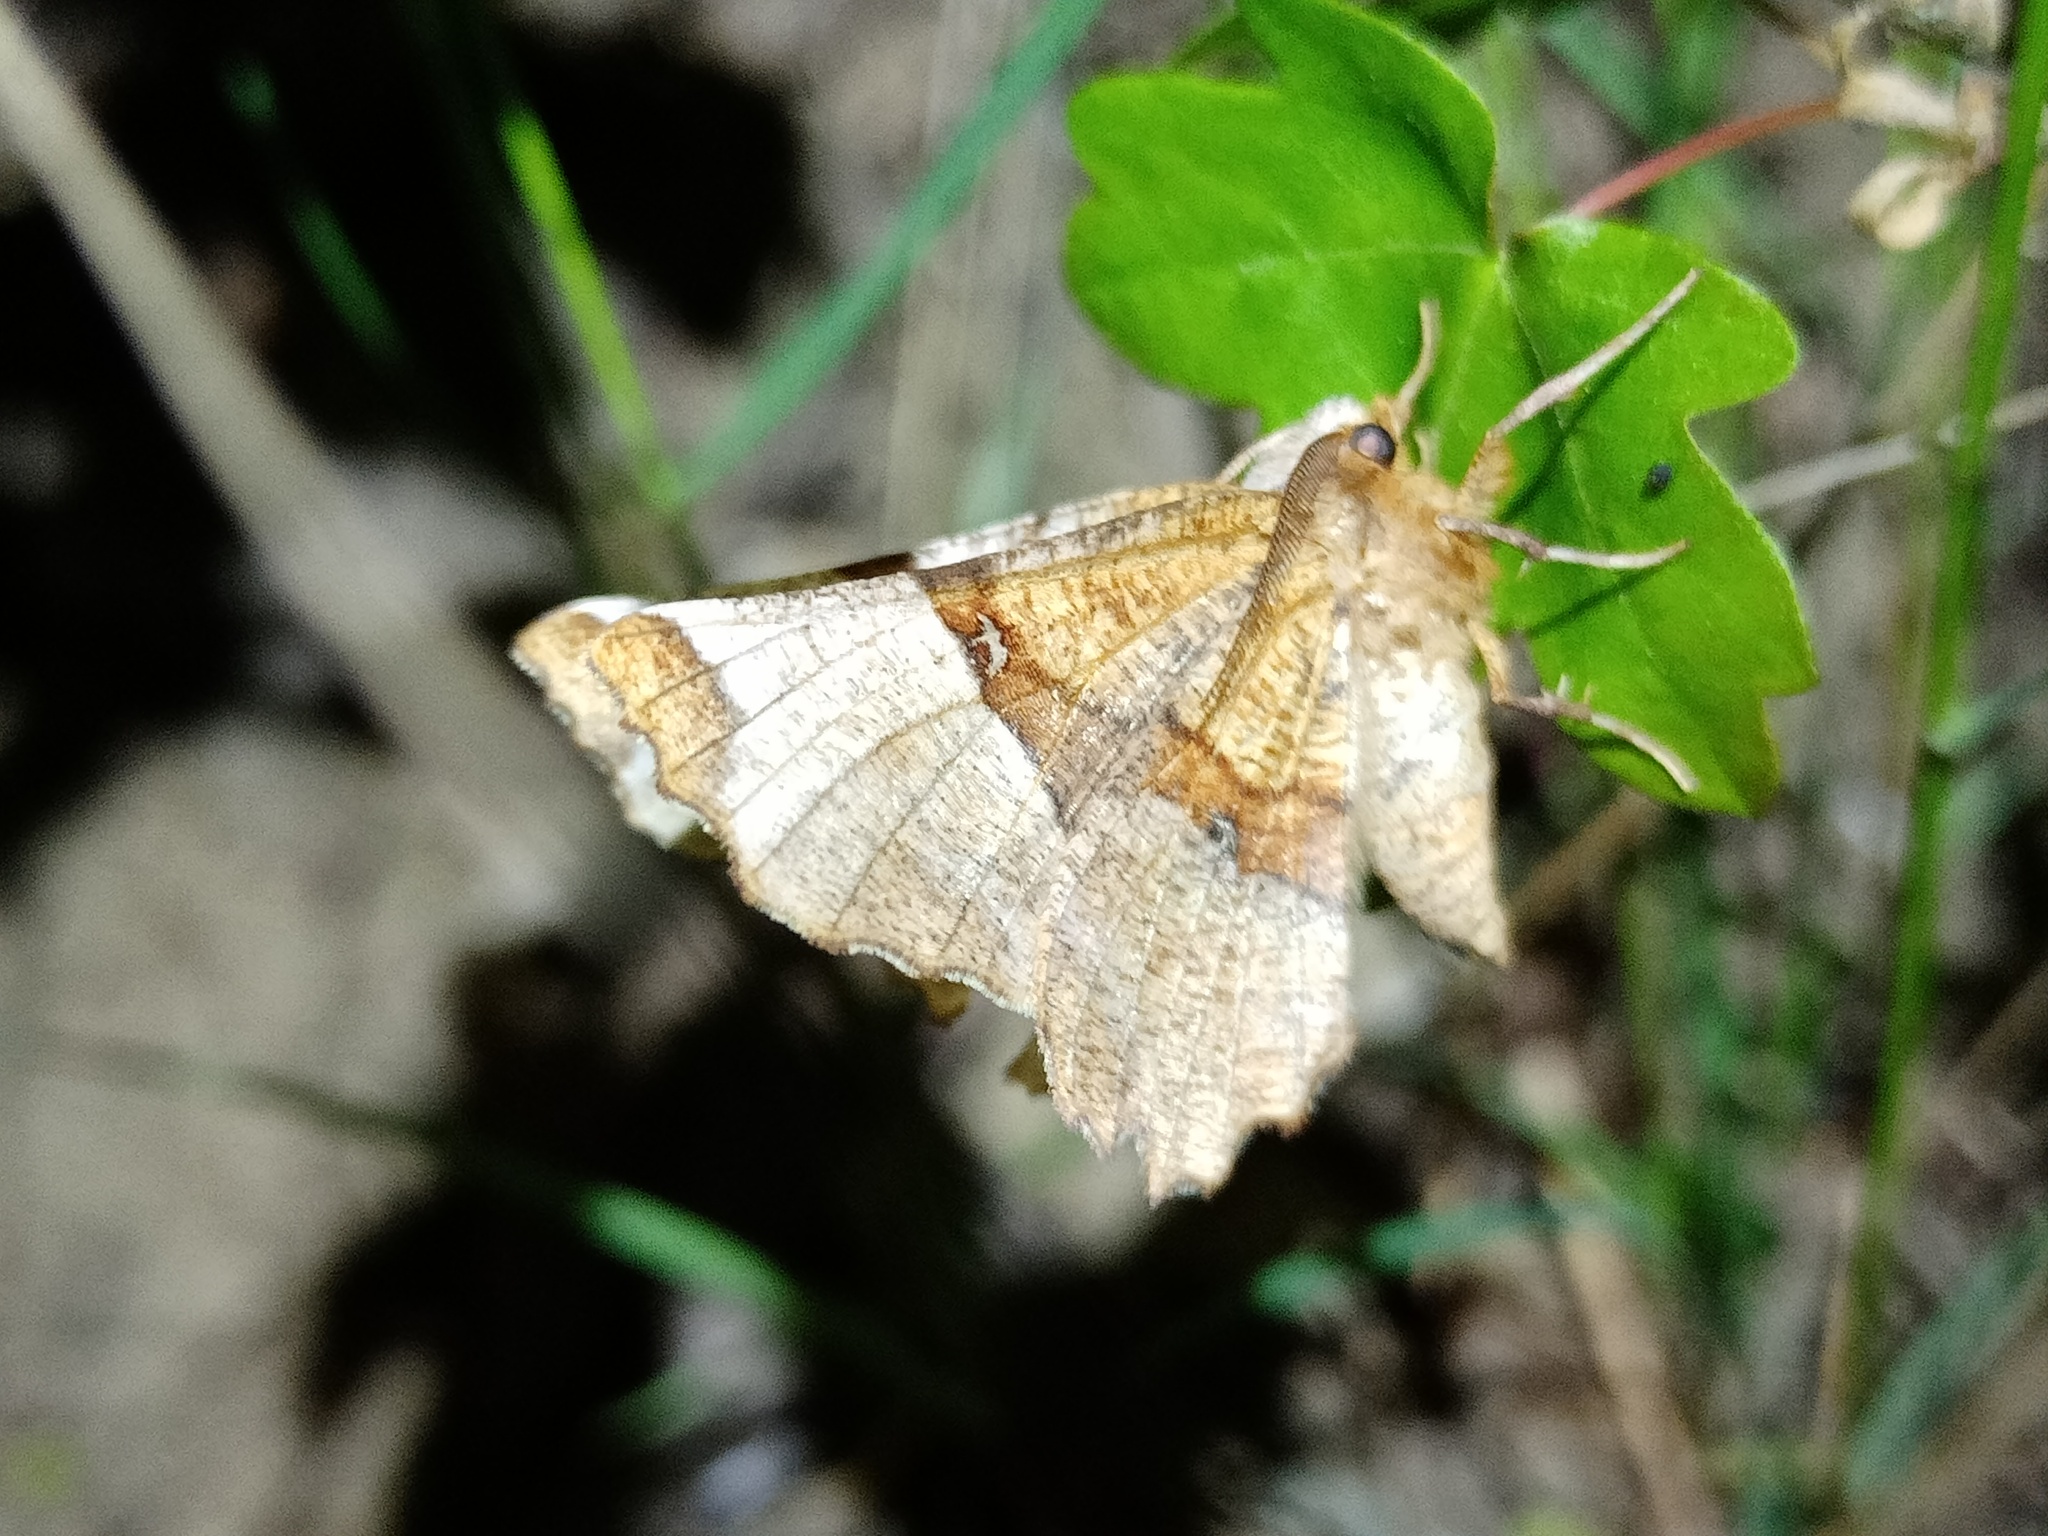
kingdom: Animalia
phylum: Arthropoda
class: Insecta
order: Lepidoptera
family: Geometridae
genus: Selenia
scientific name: Selenia lunularia
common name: Lunar thorn
